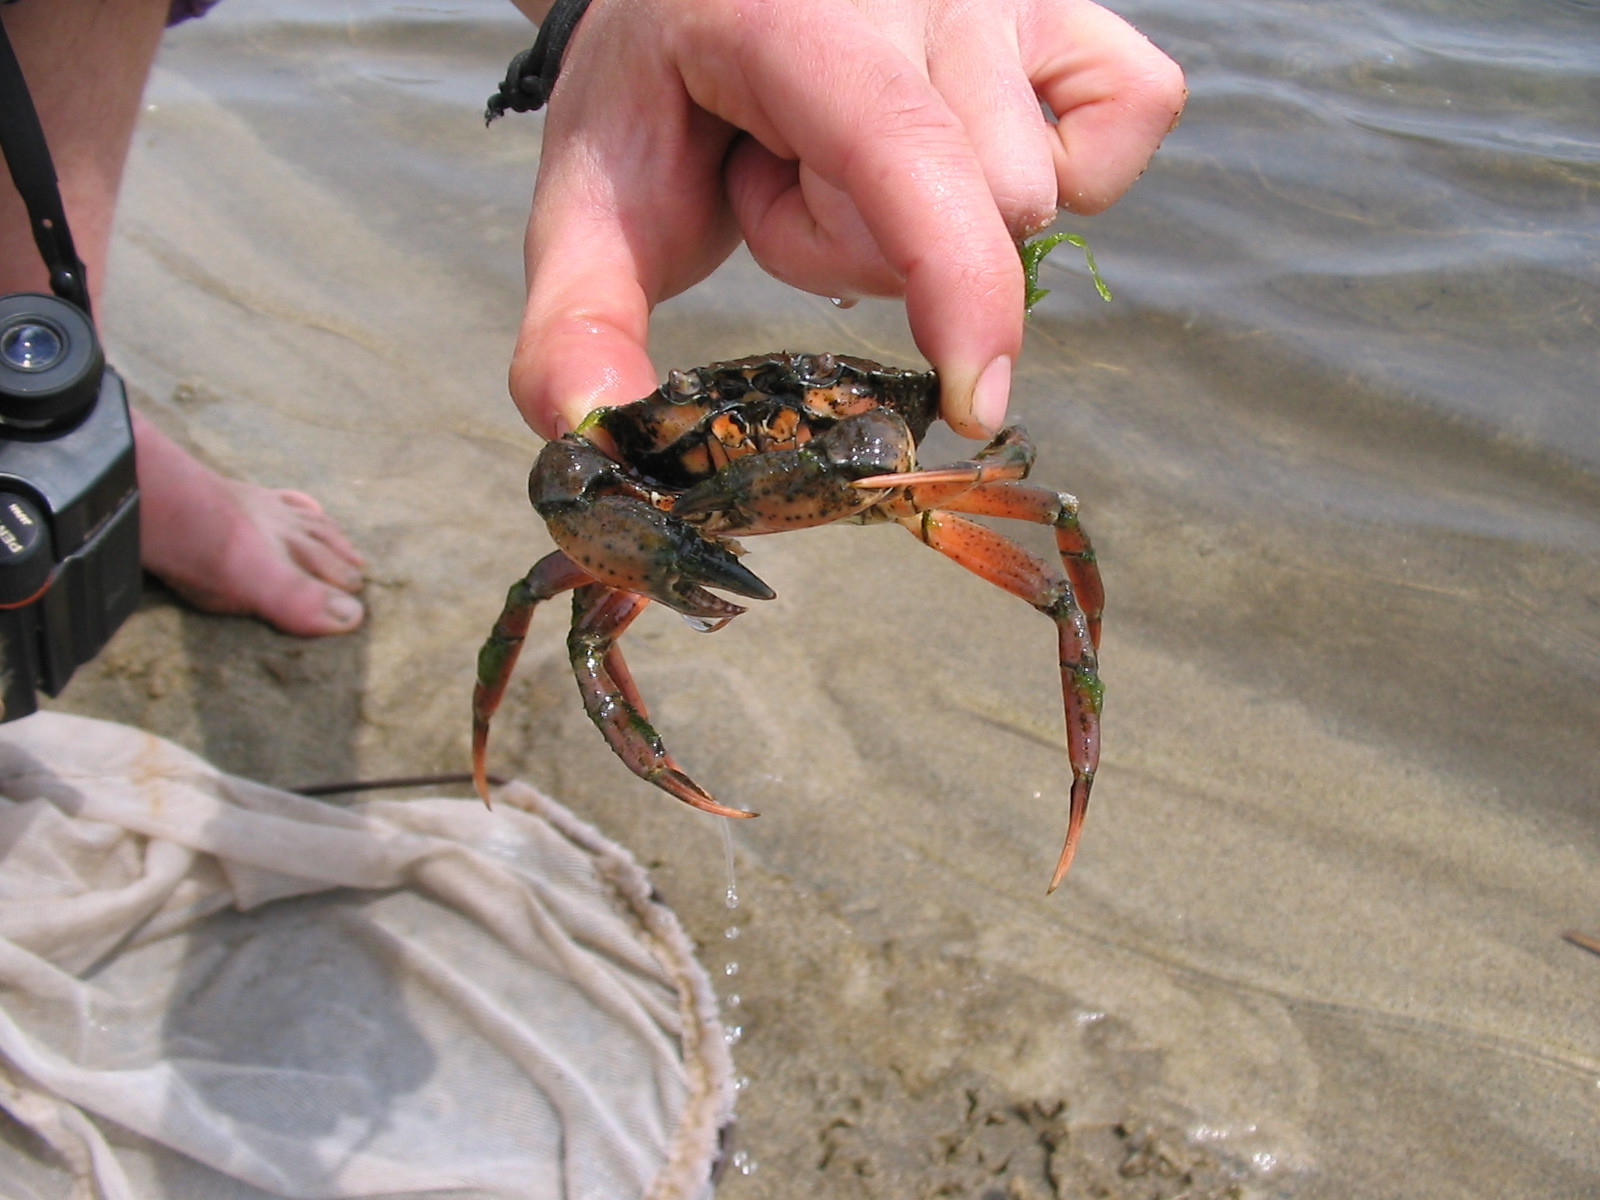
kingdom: Animalia
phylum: Arthropoda
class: Malacostraca
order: Decapoda
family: Carcinidae
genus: Carcinus
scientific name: Carcinus aestuarii
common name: Mediterranean green crab
